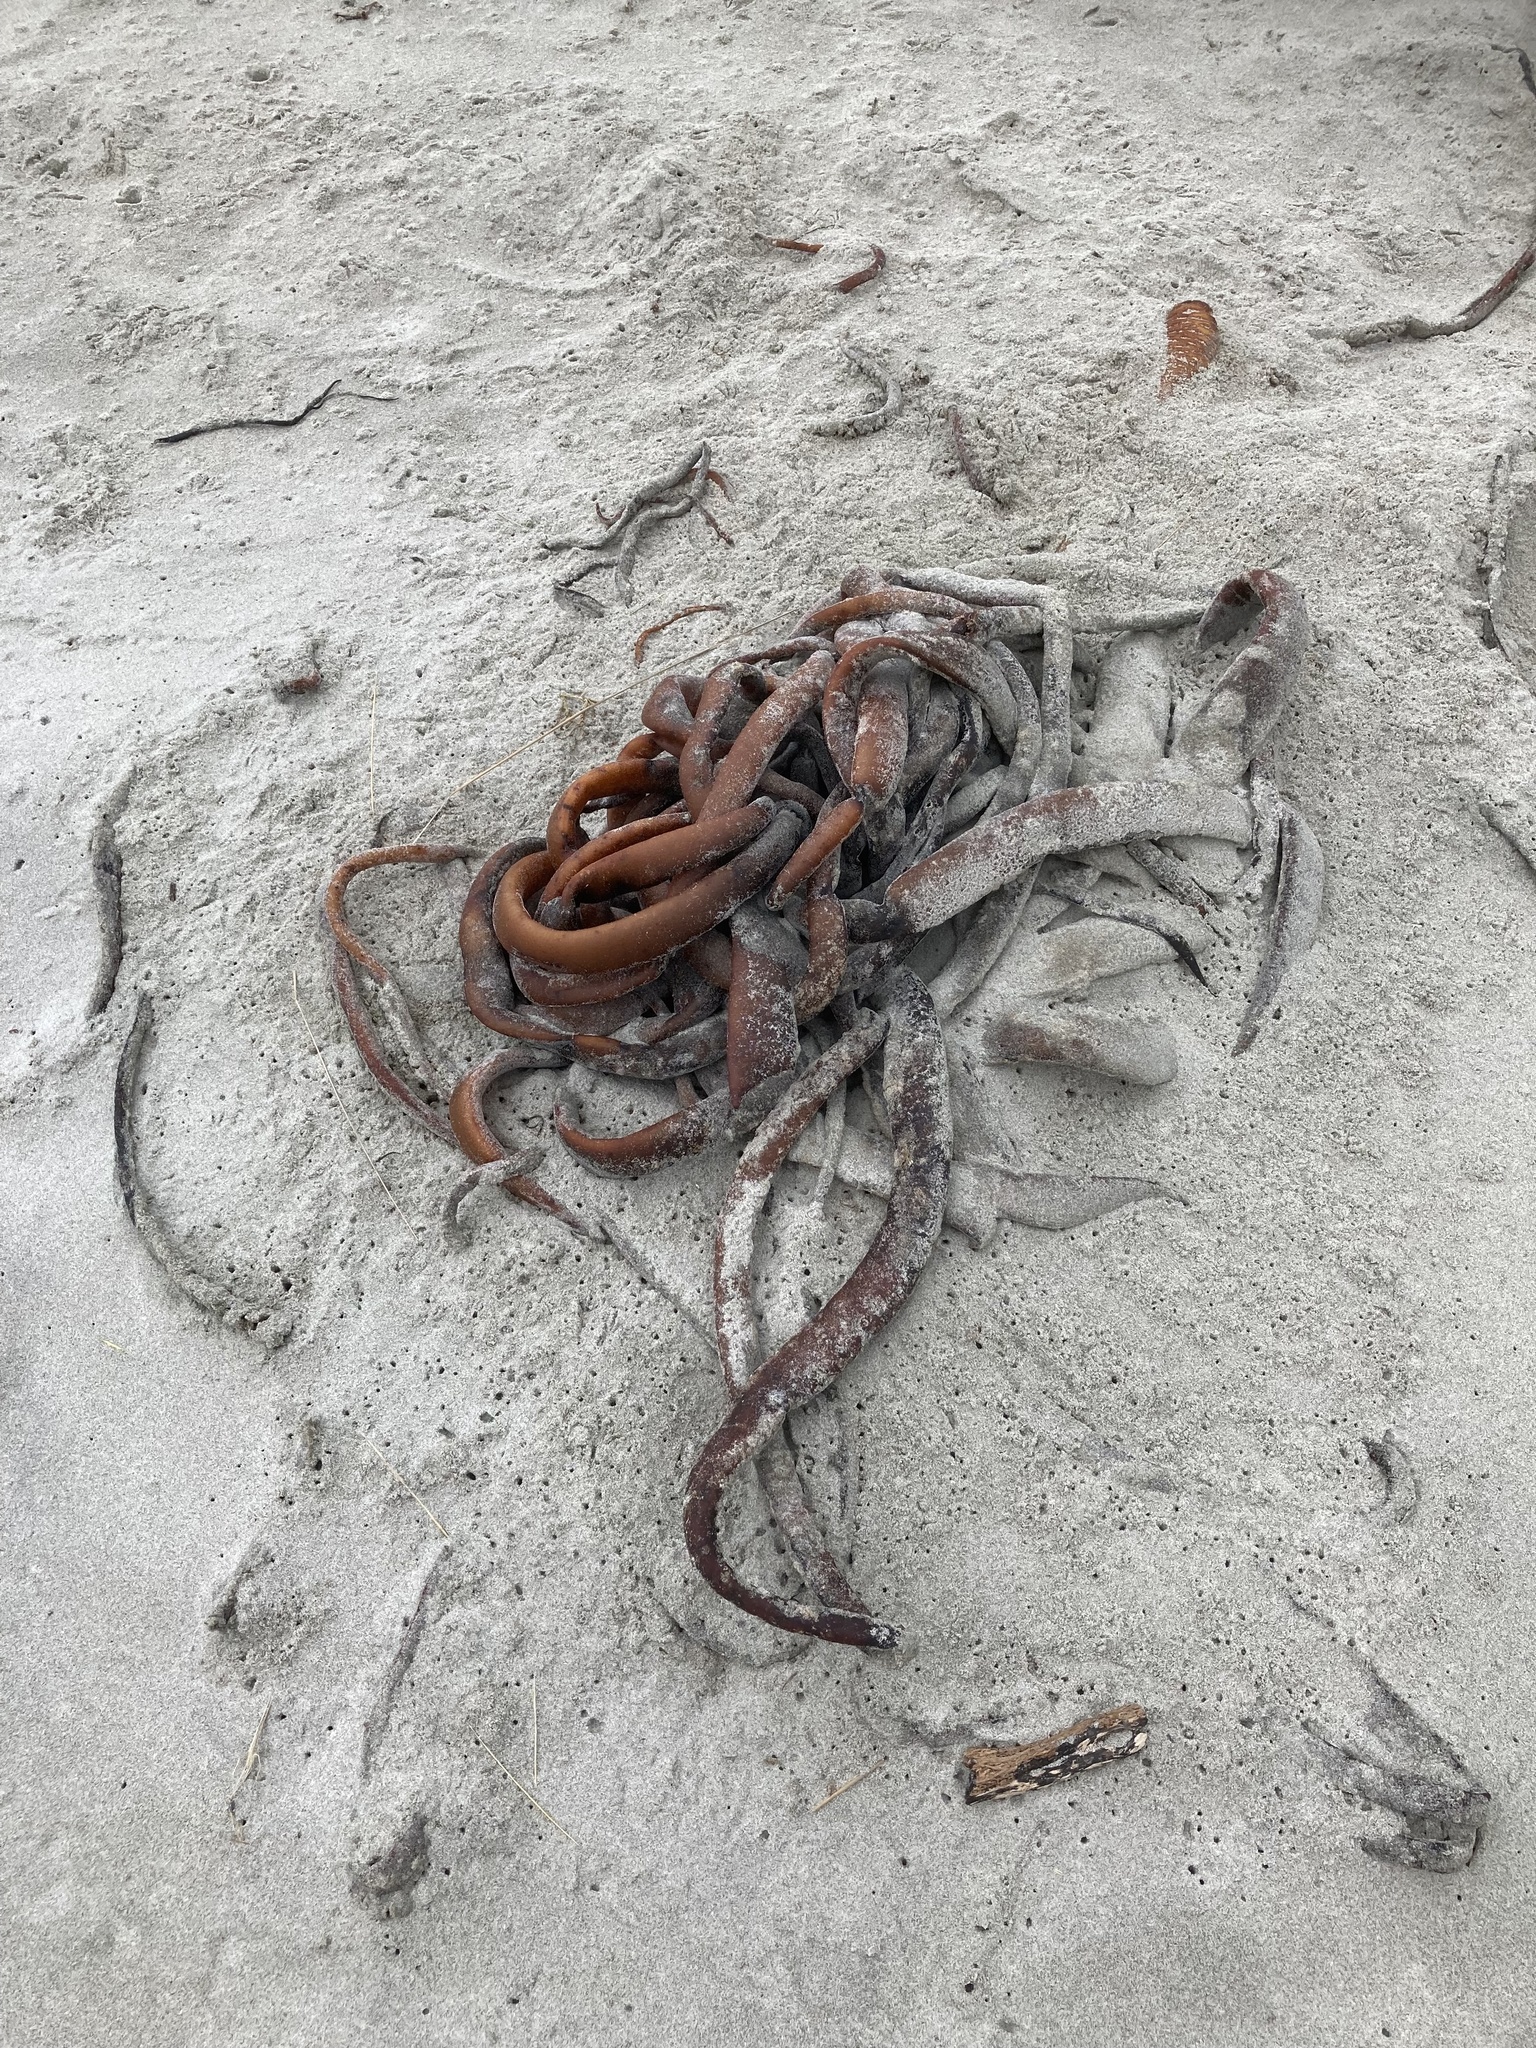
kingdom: Chromista
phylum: Ochrophyta
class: Phaeophyceae
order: Fucales
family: Durvillaeaceae
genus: Durvillaea
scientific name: Durvillaea antarctica
